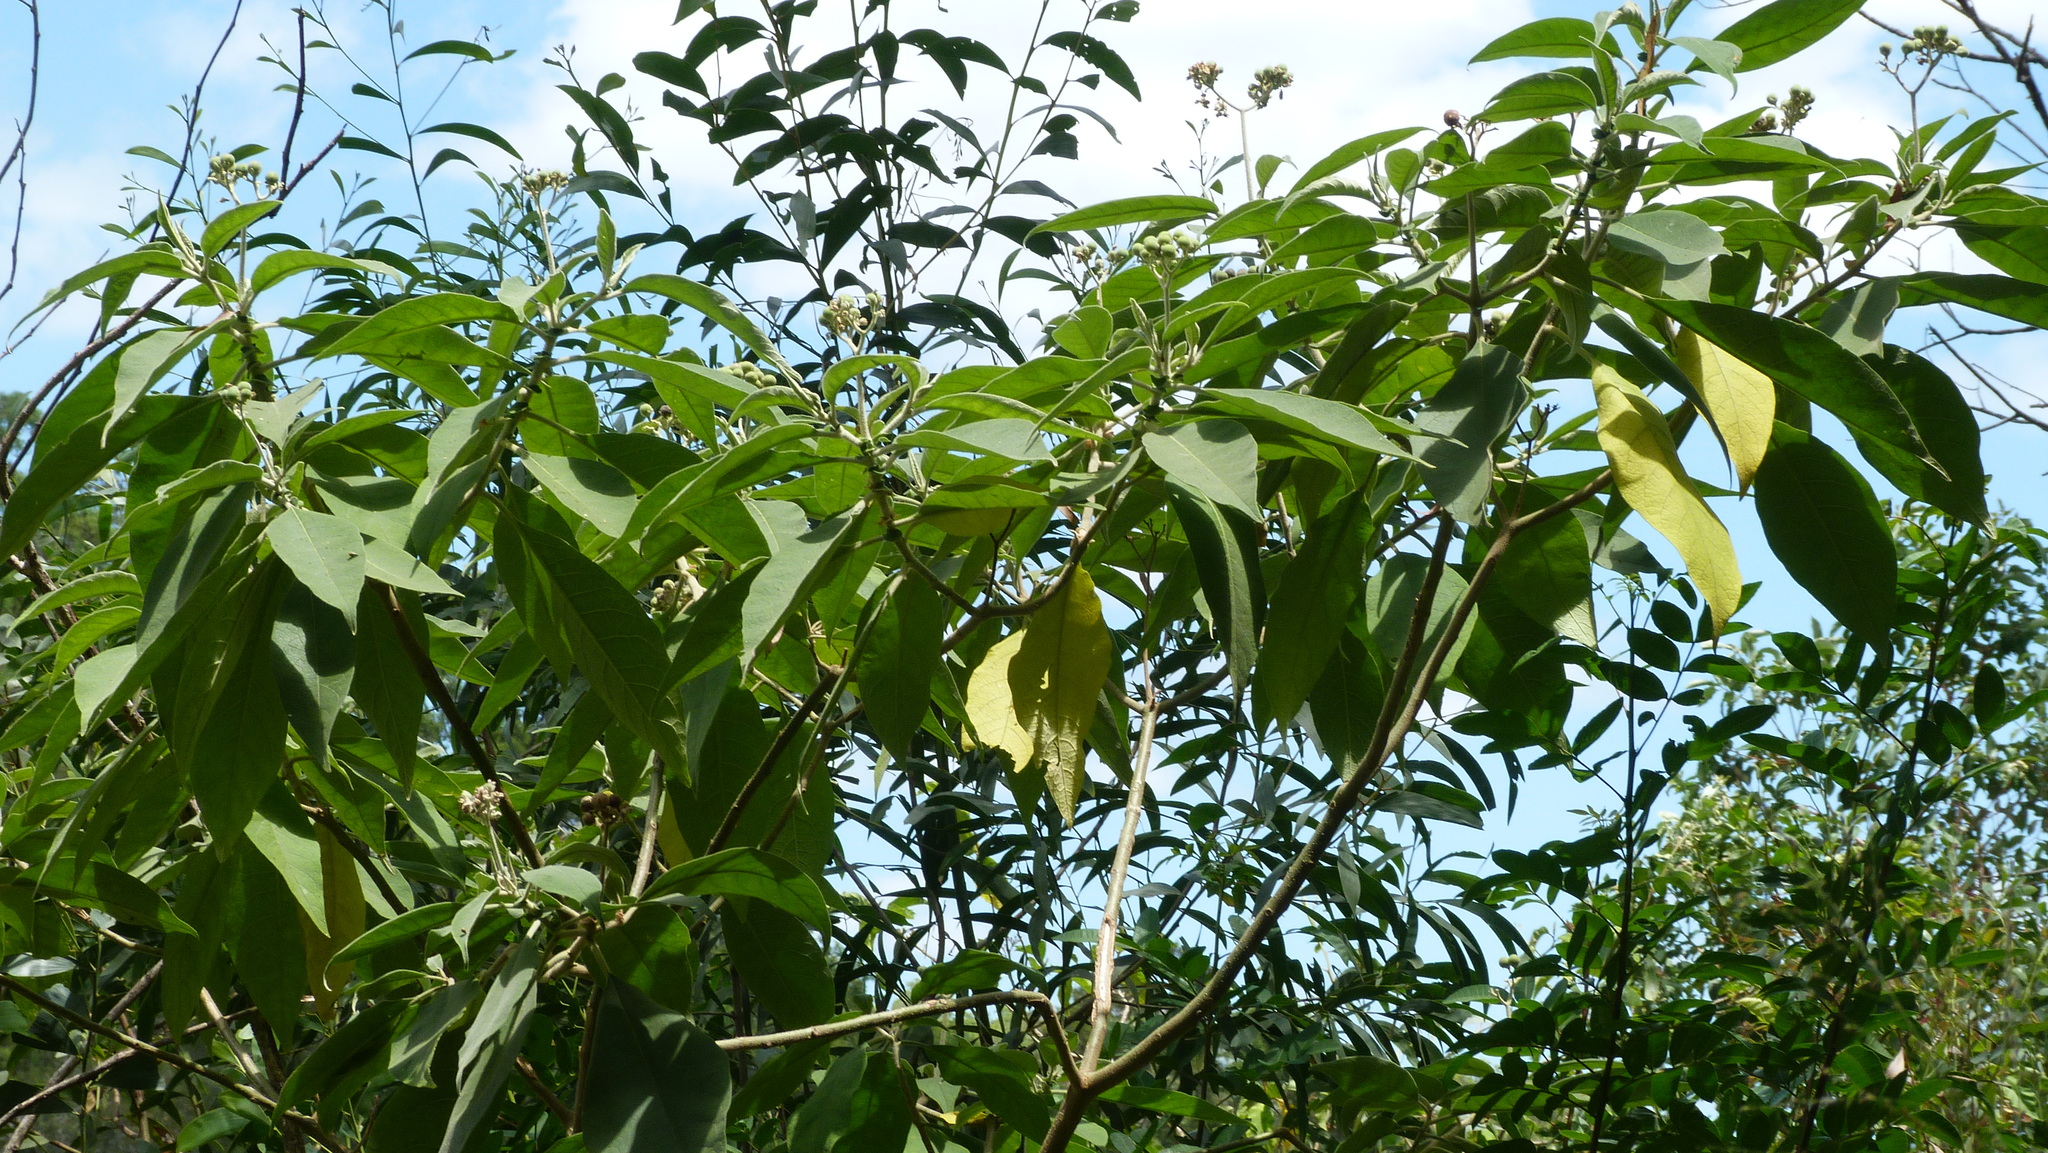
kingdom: Plantae
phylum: Tracheophyta
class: Magnoliopsida
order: Solanales
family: Solanaceae
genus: Solanum
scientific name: Solanum mauritianum
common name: Earleaf nightshade
